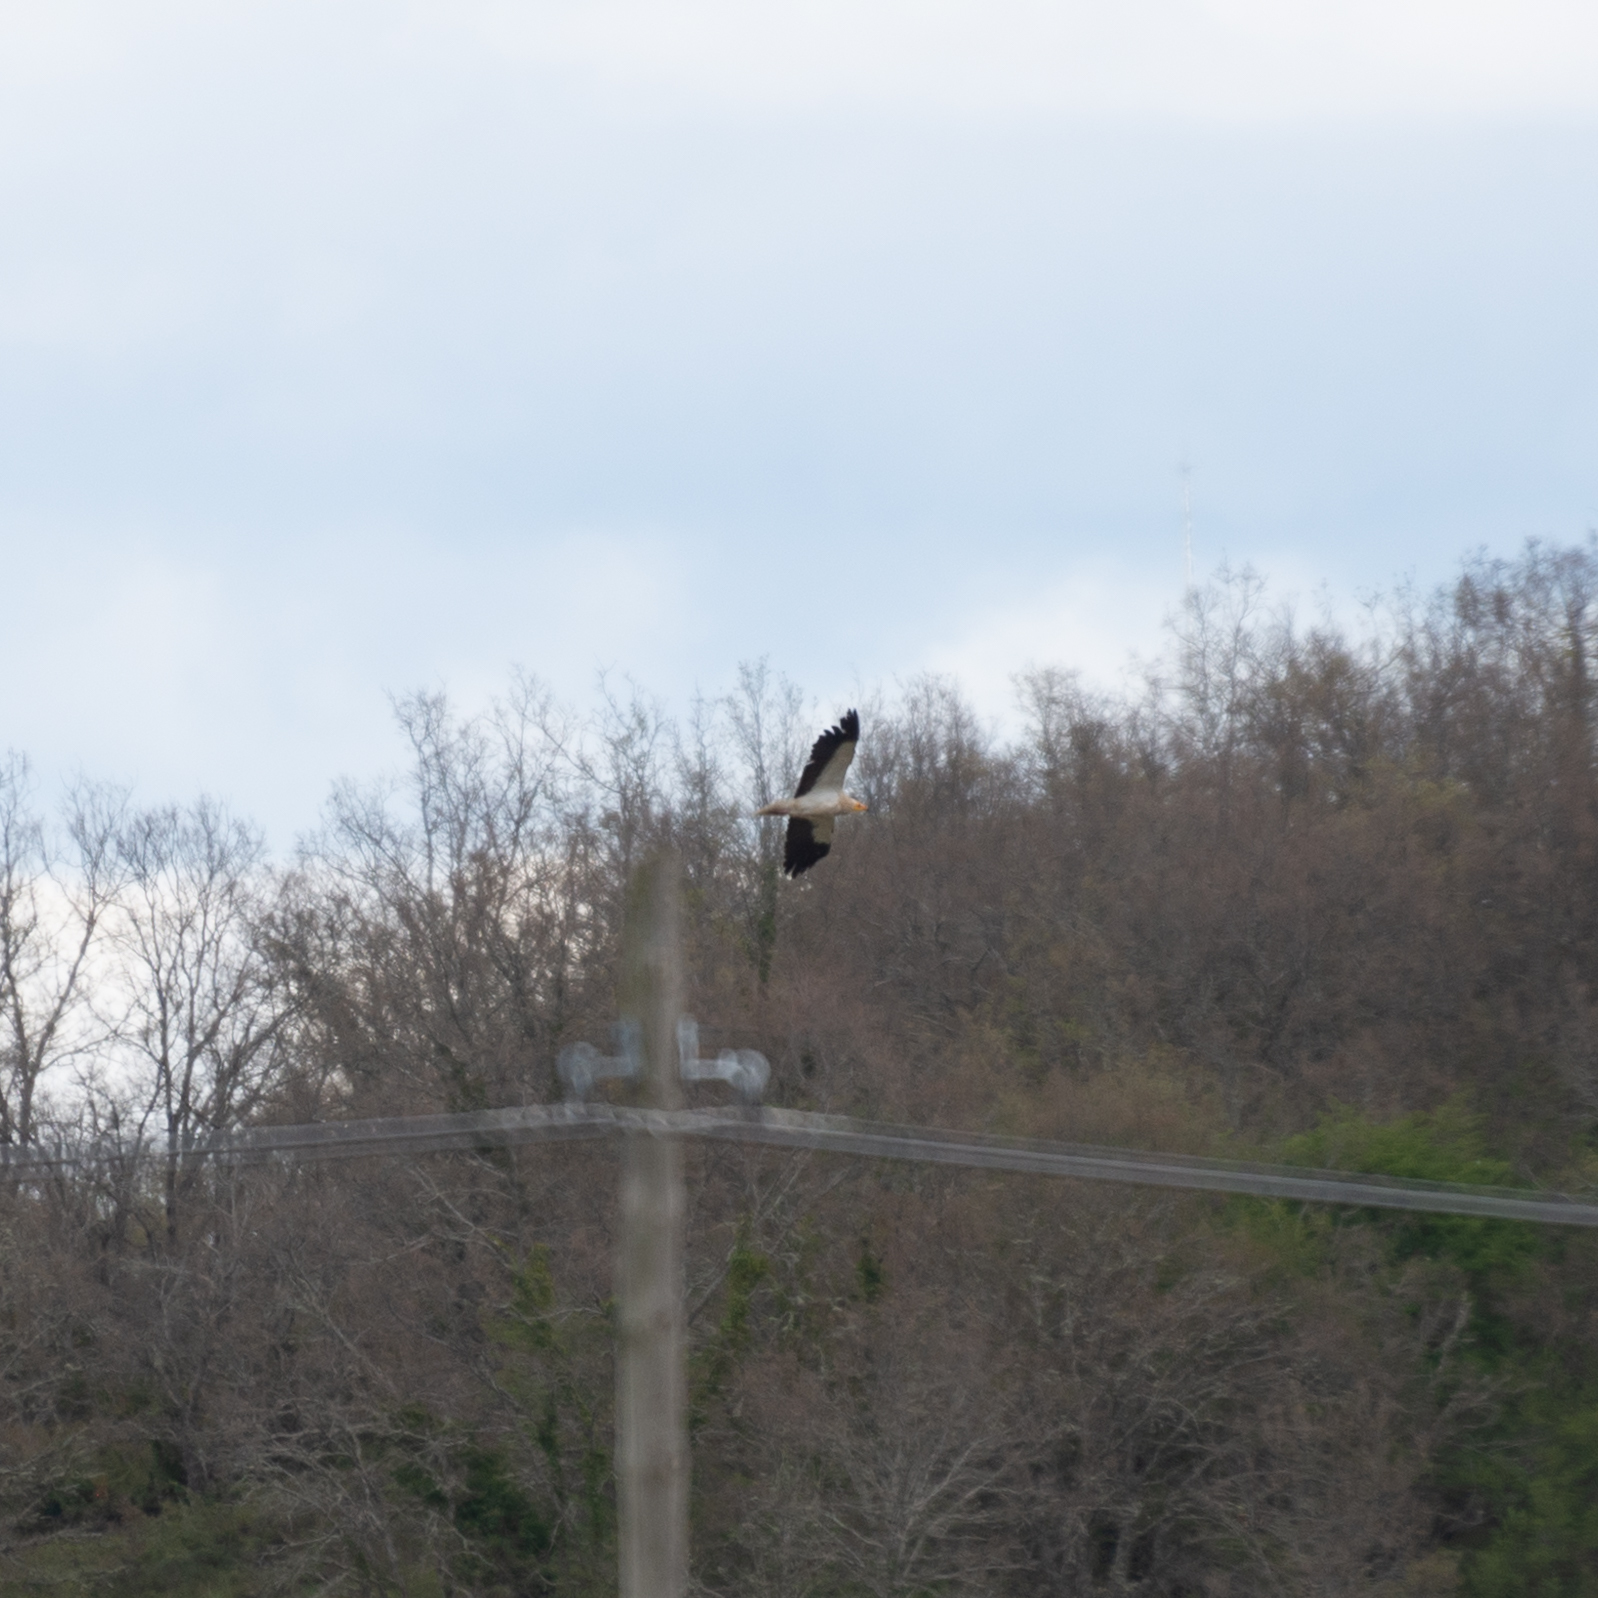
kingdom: Animalia
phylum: Chordata
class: Aves
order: Accipitriformes
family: Accipitridae
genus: Neophron
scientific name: Neophron percnopterus
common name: Egyptian vulture
